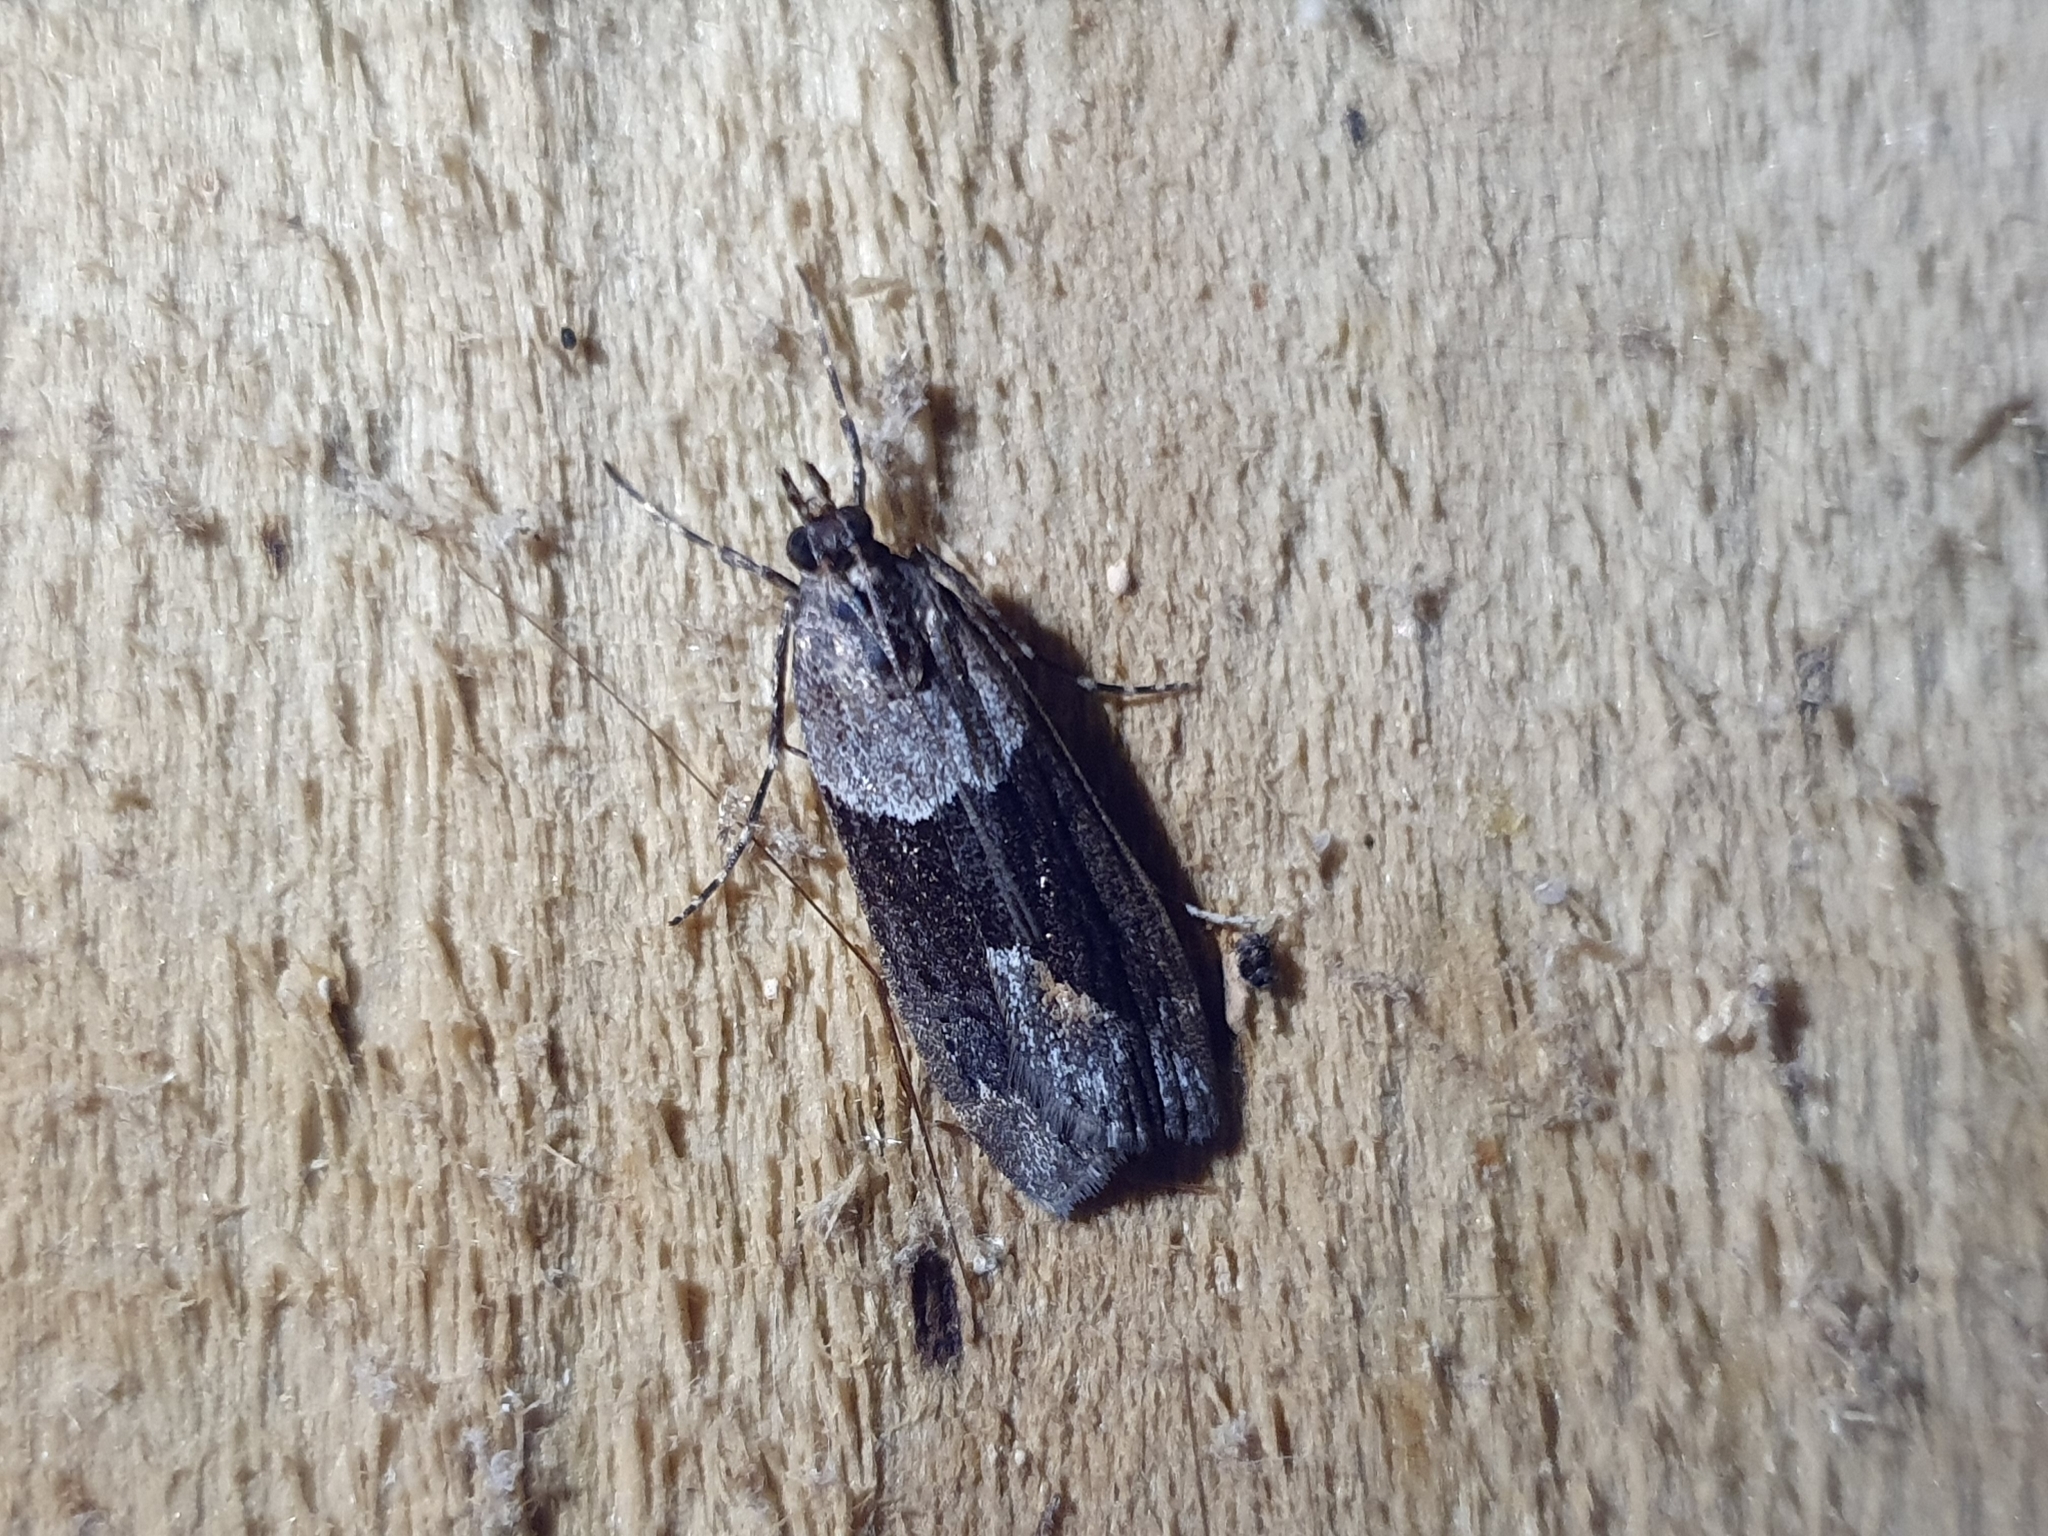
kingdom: Animalia
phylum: Arthropoda
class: Insecta
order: Lepidoptera
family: Crambidae
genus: Eudonia
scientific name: Eudonia submarginalis
